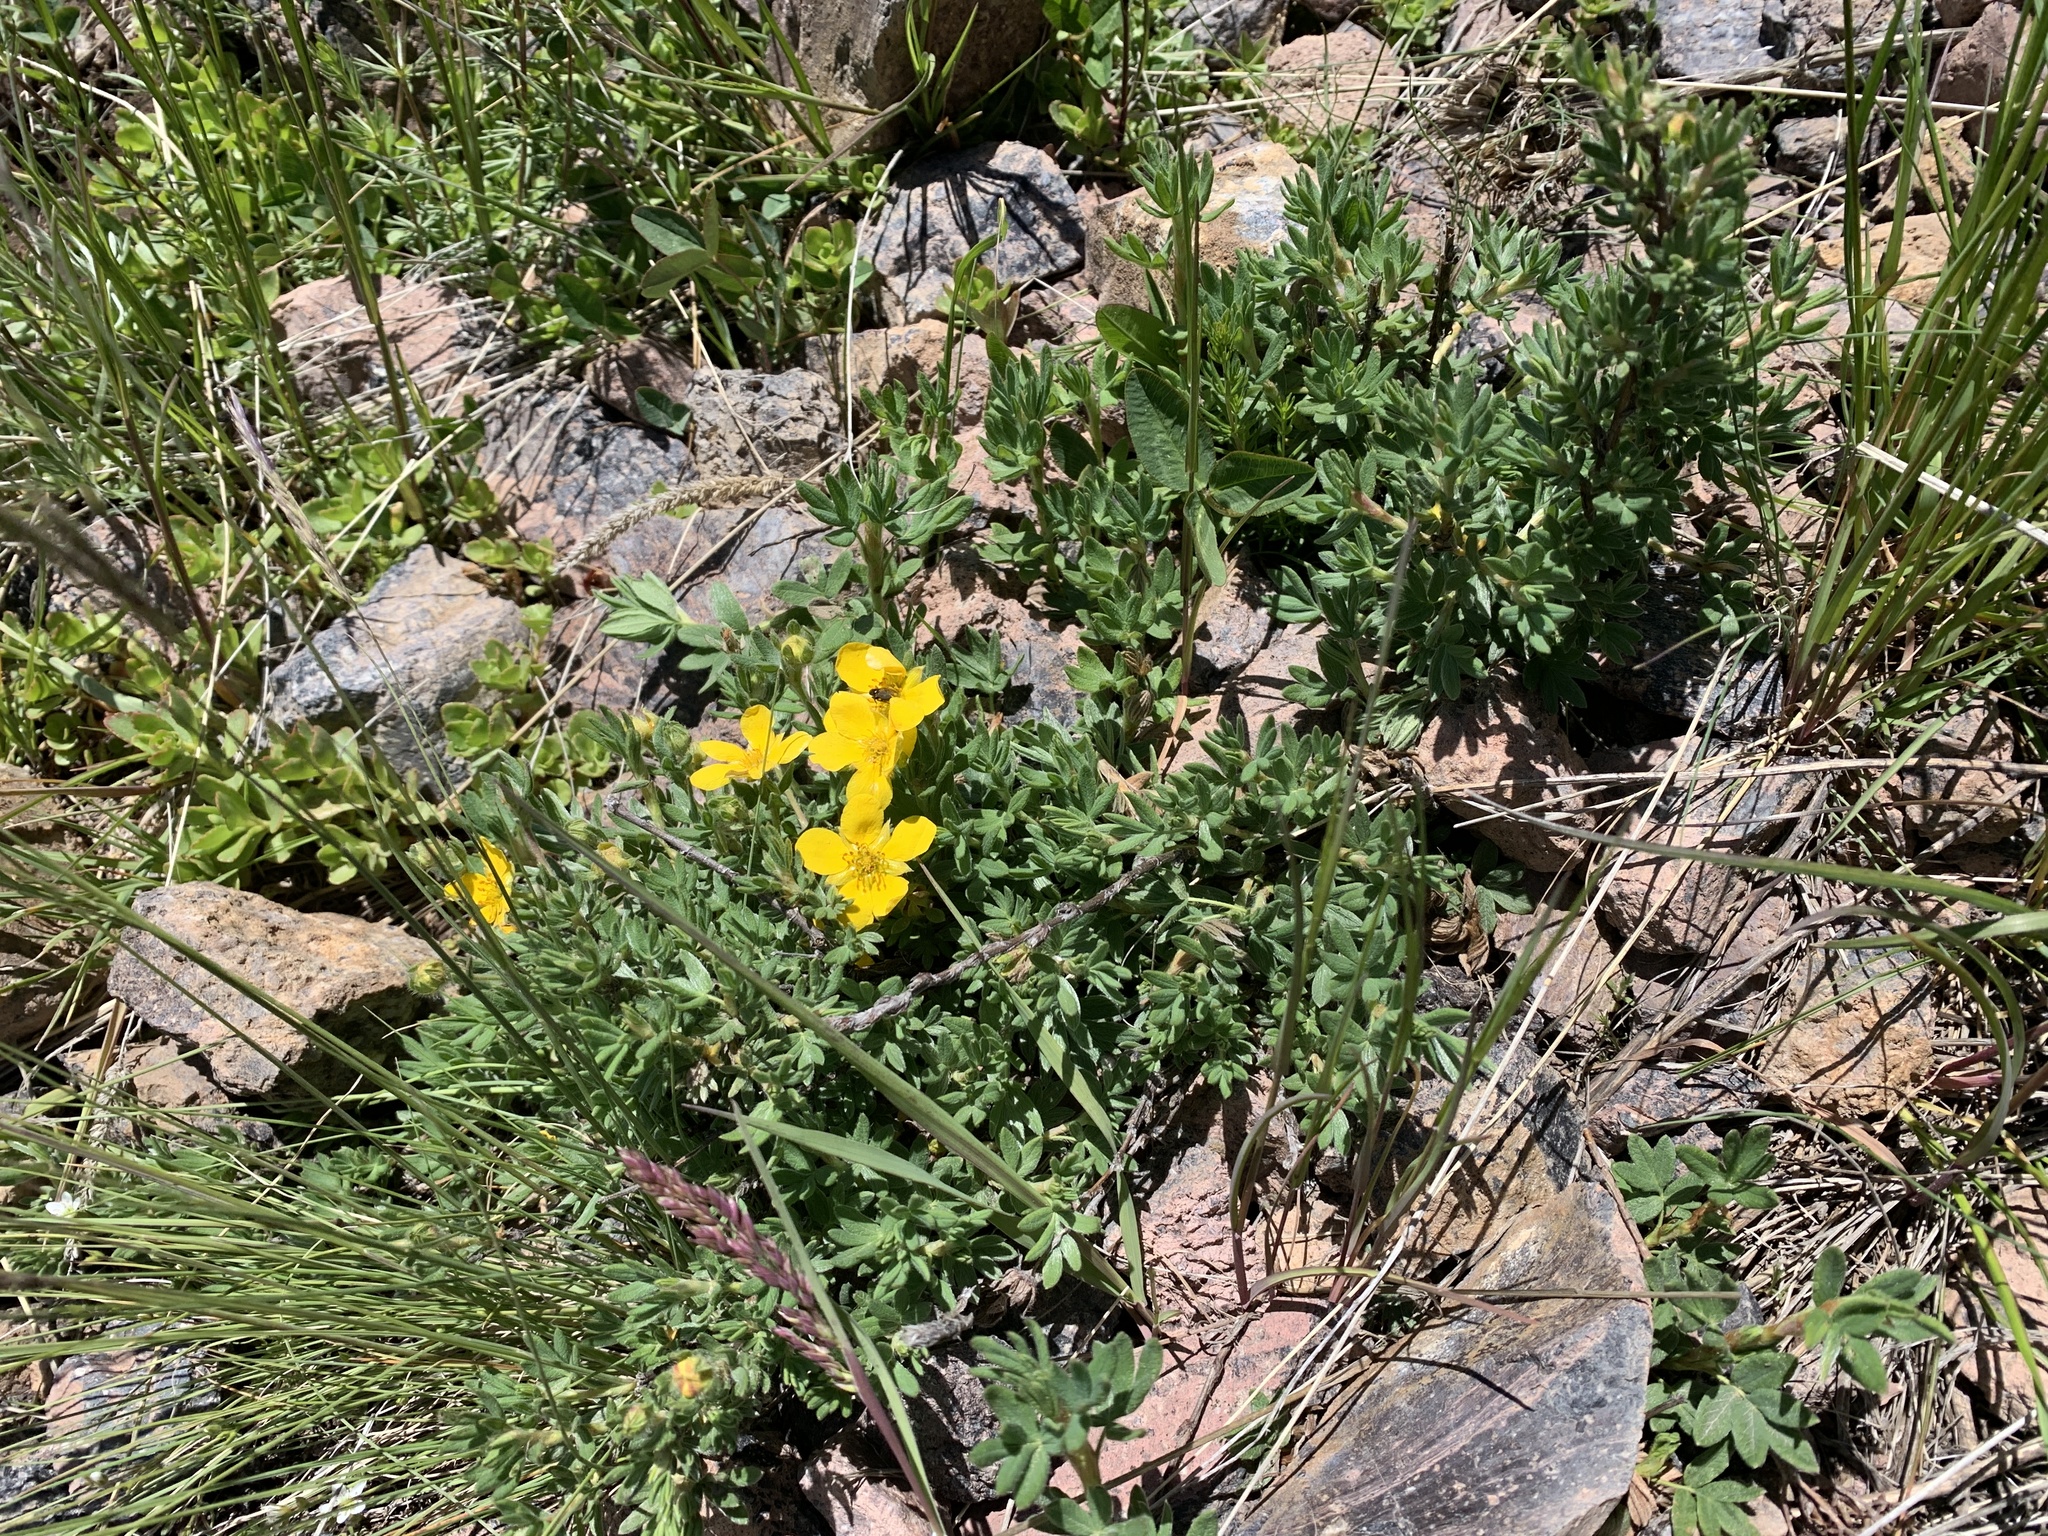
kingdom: Plantae
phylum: Tracheophyta
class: Magnoliopsida
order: Rosales
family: Rosaceae
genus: Dasiphora
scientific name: Dasiphora fruticosa
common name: Shrubby cinquefoil
